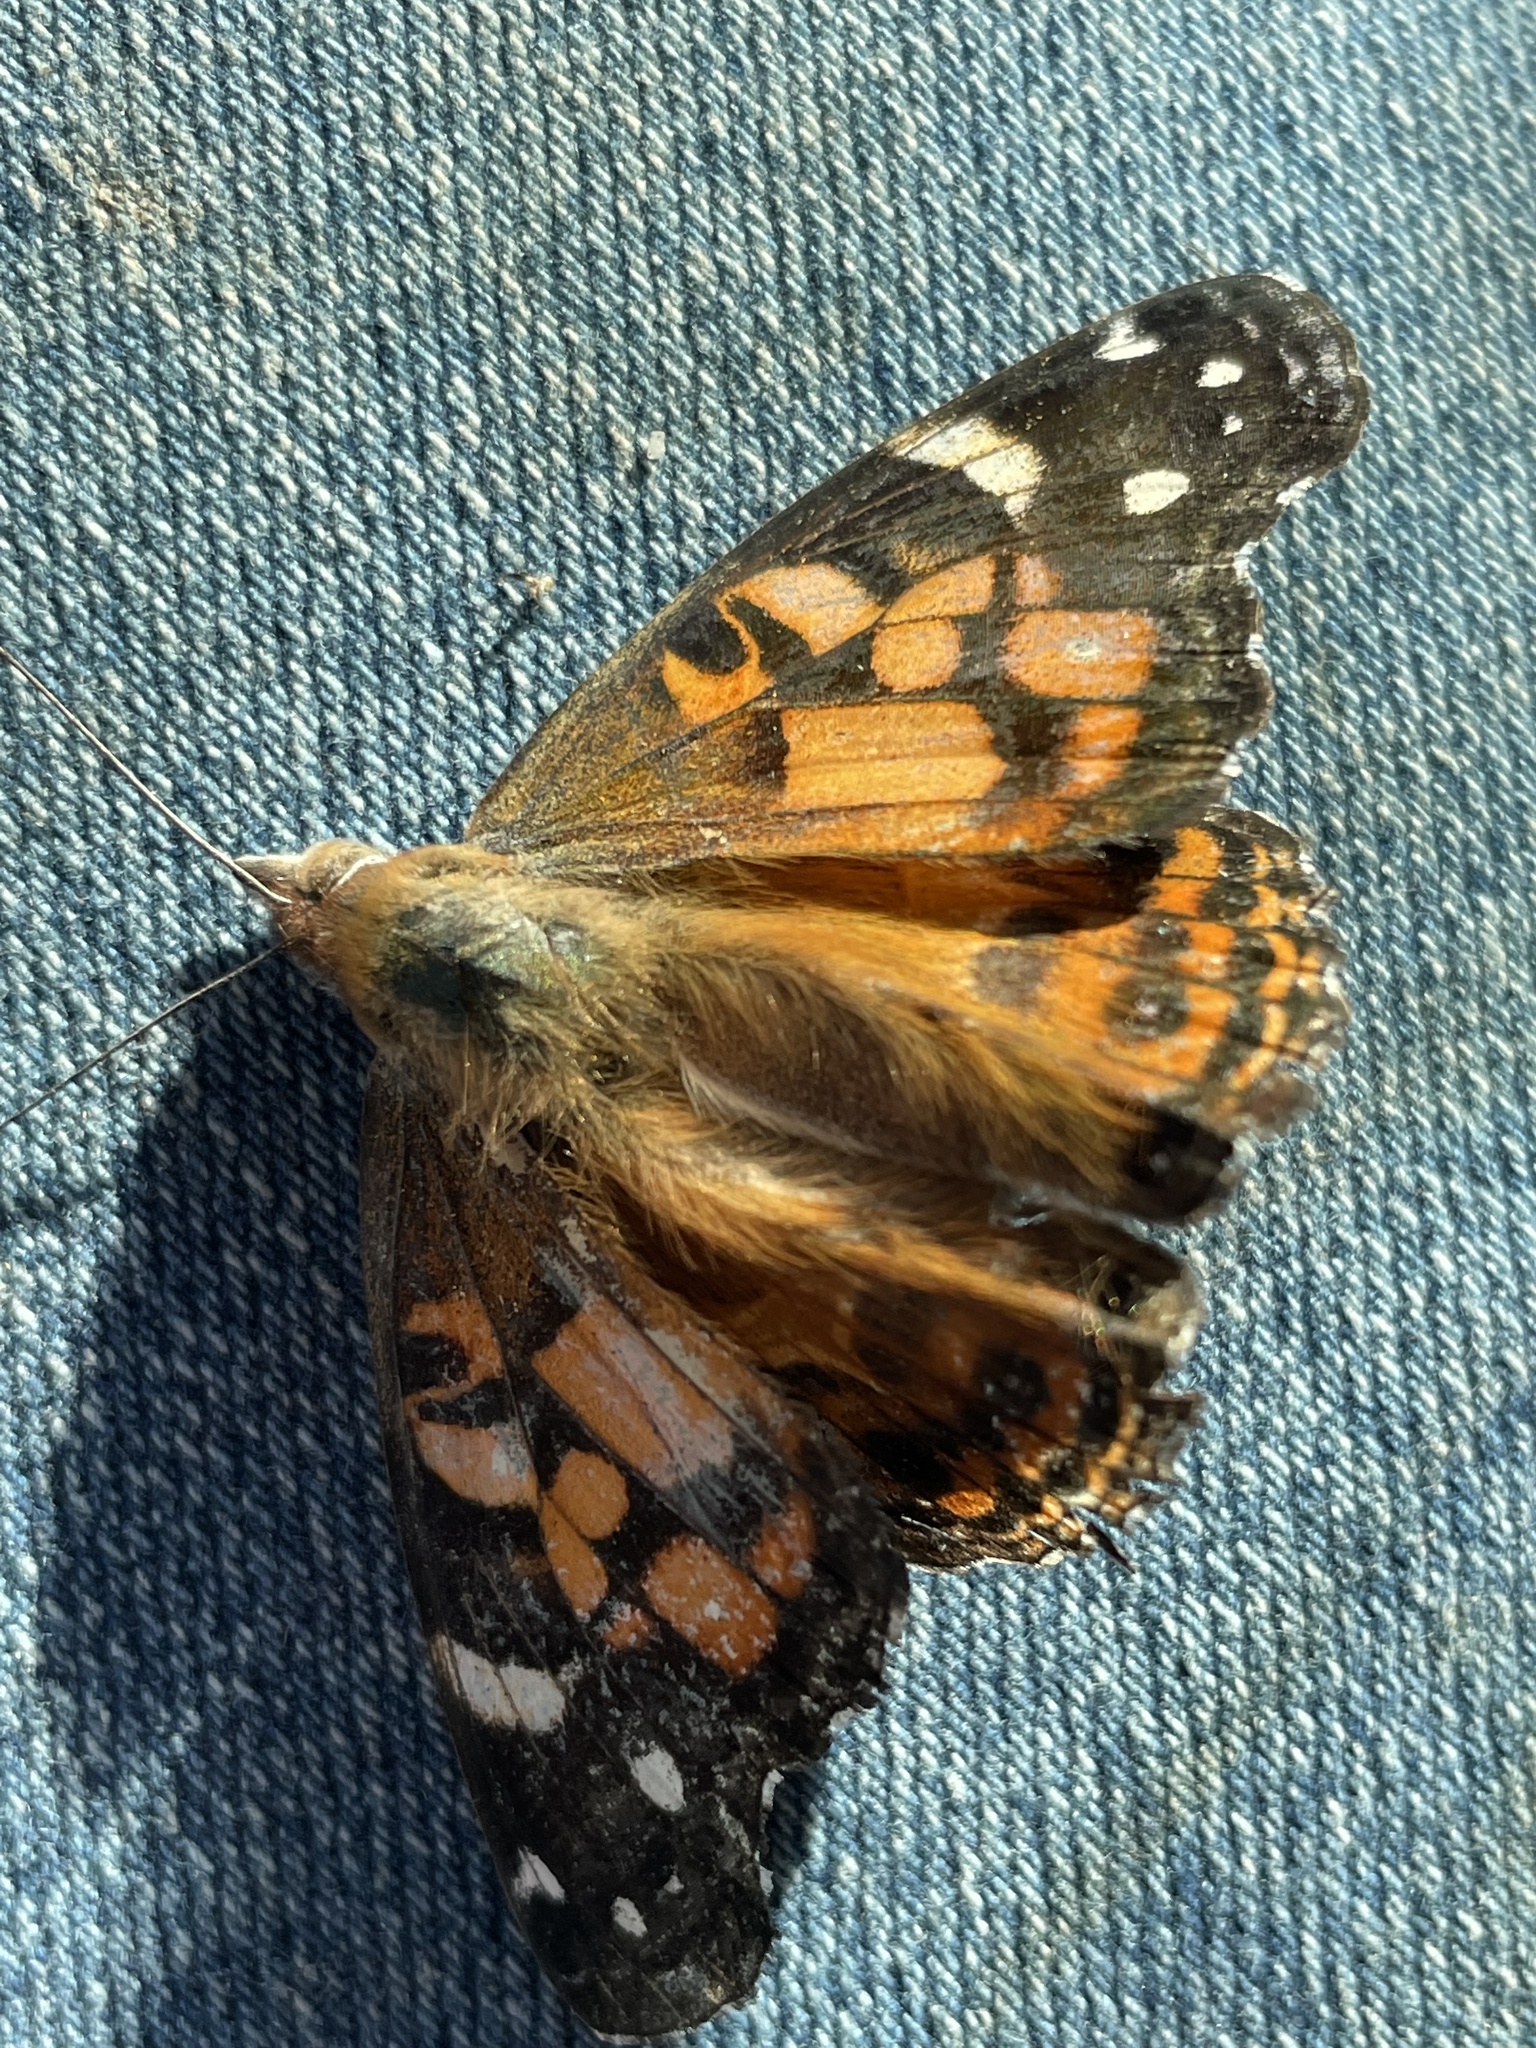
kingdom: Animalia
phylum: Arthropoda
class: Insecta
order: Lepidoptera
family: Nymphalidae
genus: Vanessa
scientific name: Vanessa virginiensis
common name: American lady
